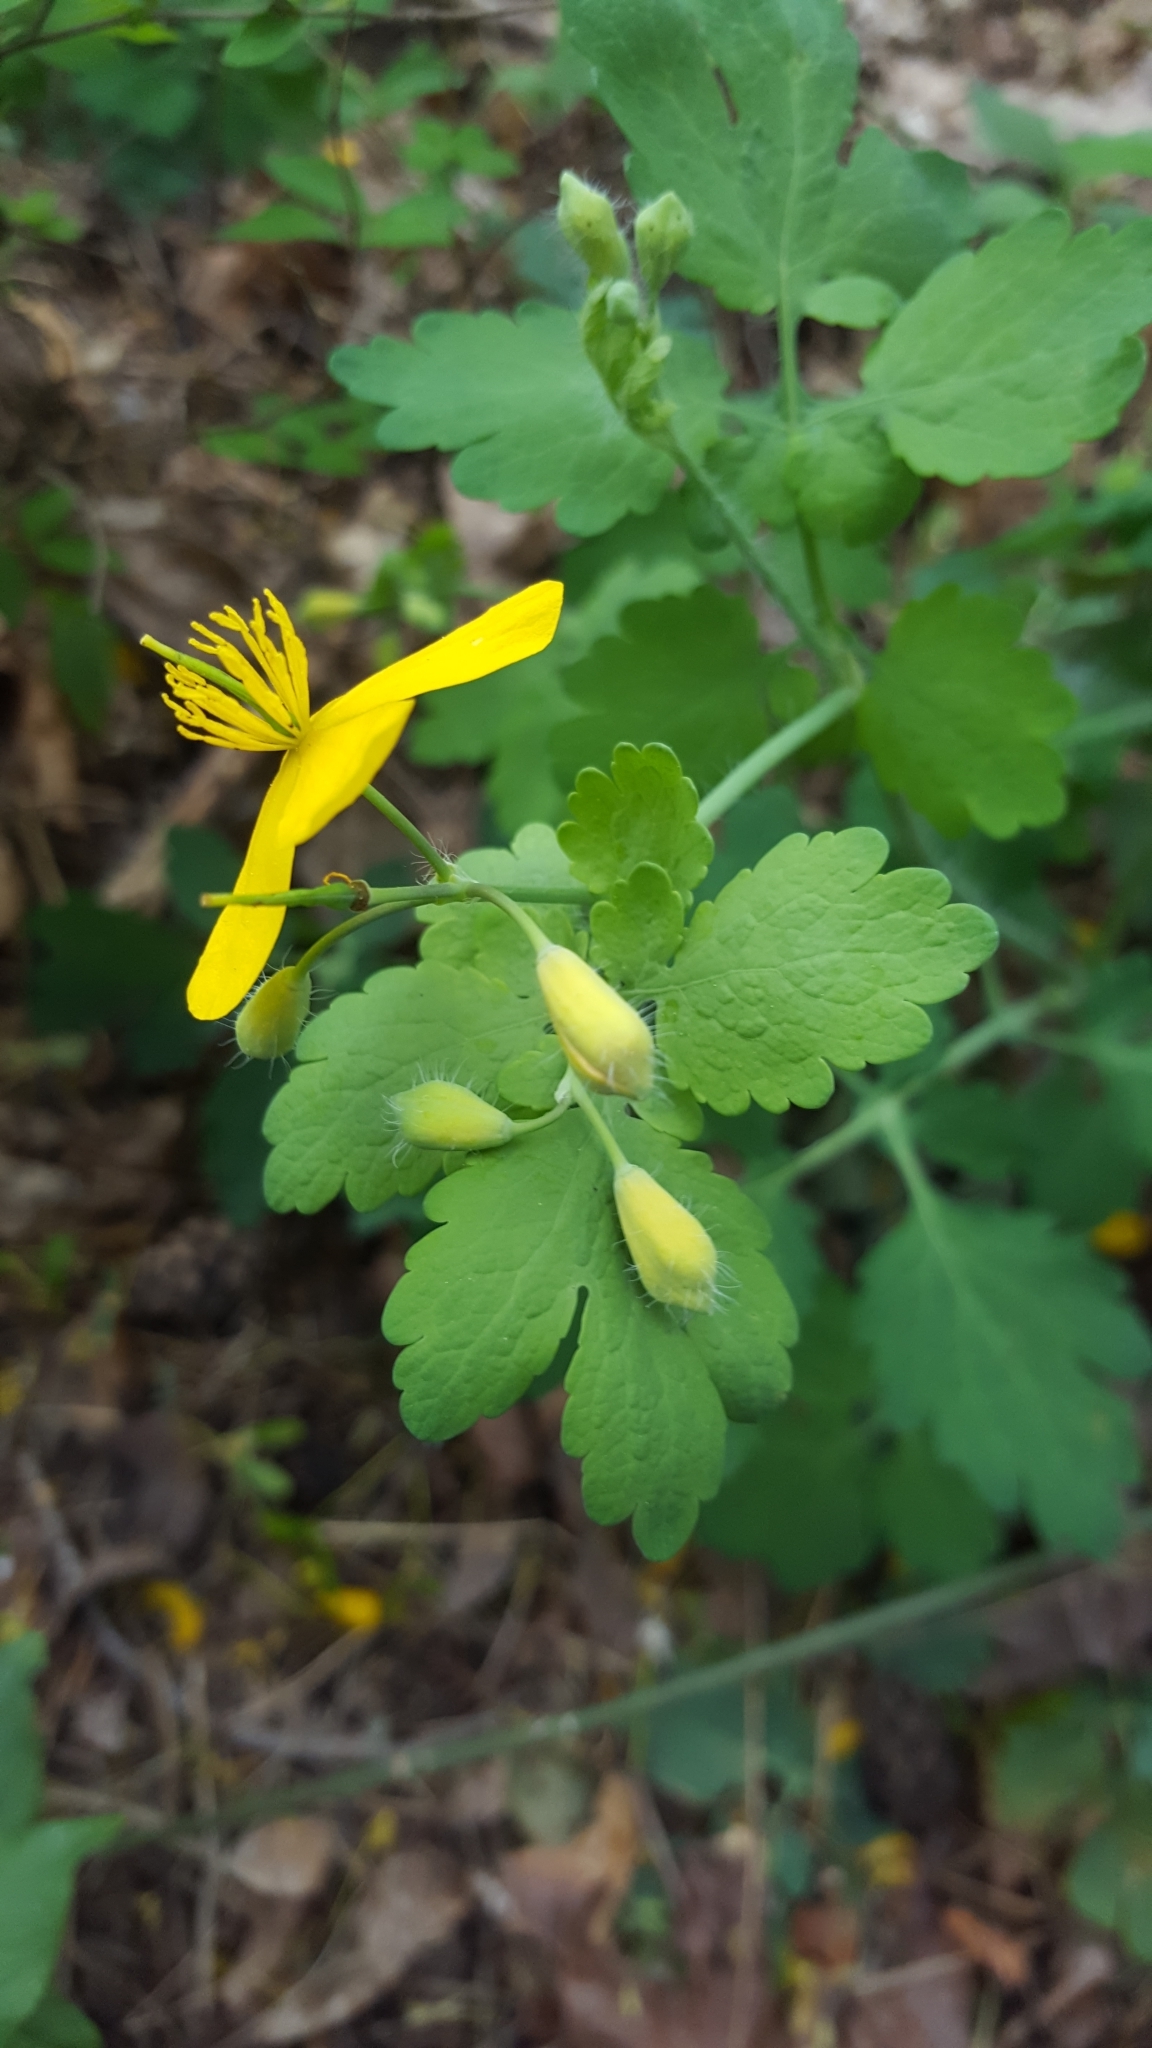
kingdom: Plantae
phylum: Tracheophyta
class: Magnoliopsida
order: Ranunculales
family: Papaveraceae
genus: Chelidonium
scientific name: Chelidonium majus
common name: Greater celandine
